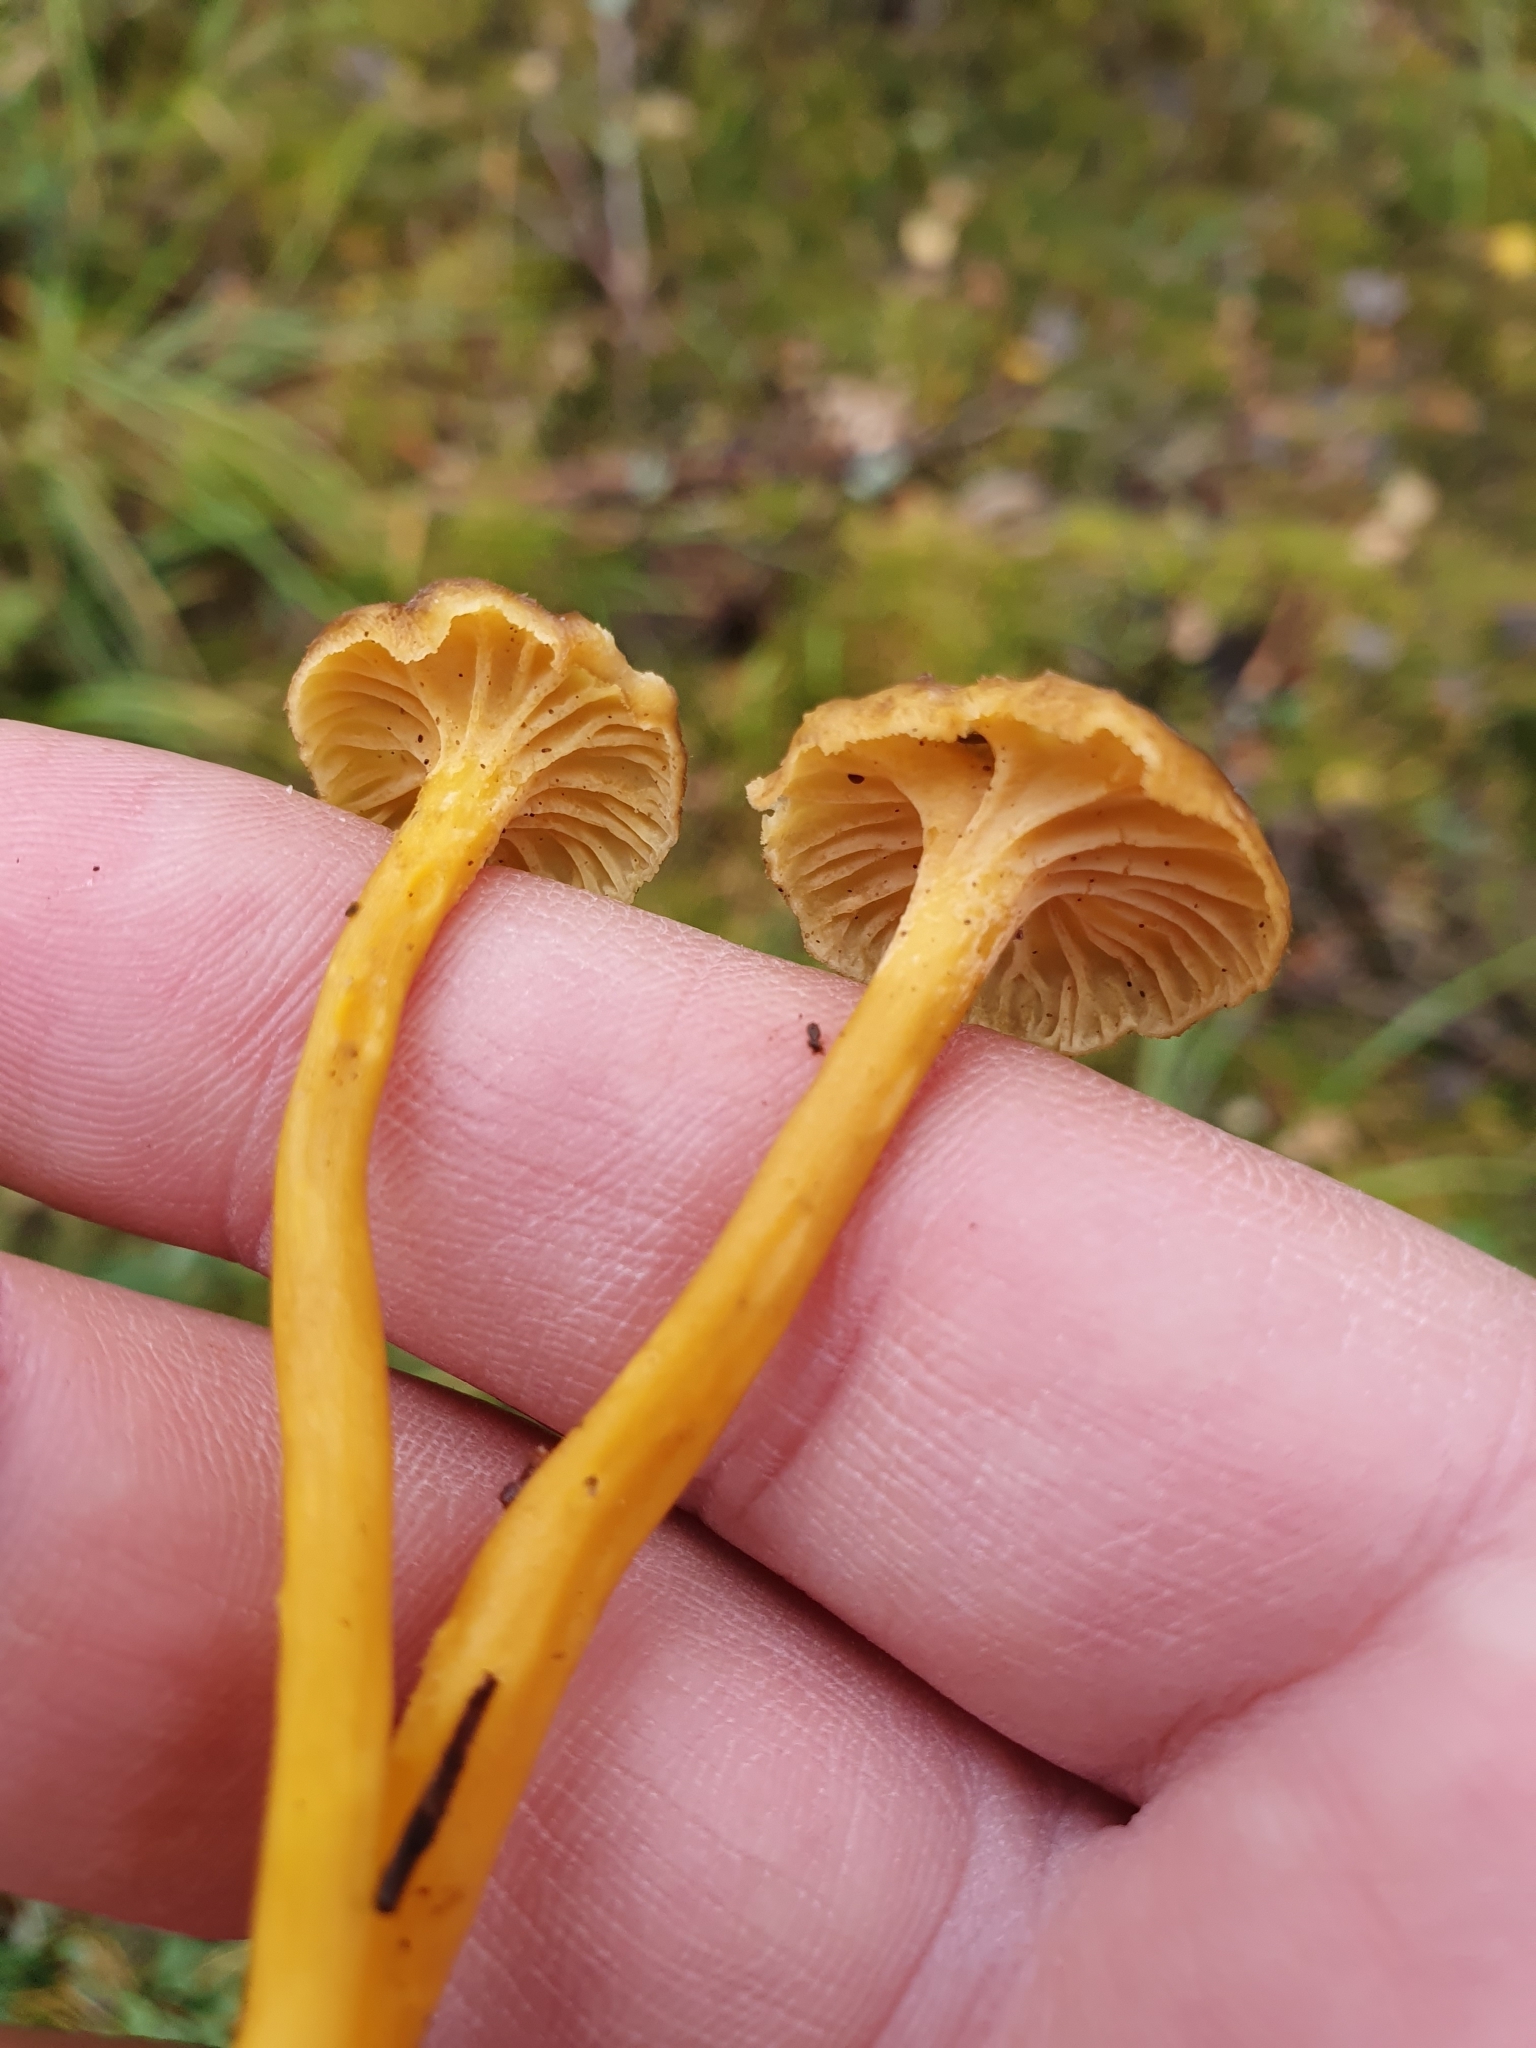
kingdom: Fungi
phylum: Basidiomycota
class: Agaricomycetes
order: Cantharellales
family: Hydnaceae
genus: Craterellus
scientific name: Craterellus tubaeformis
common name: Yellowfoot
